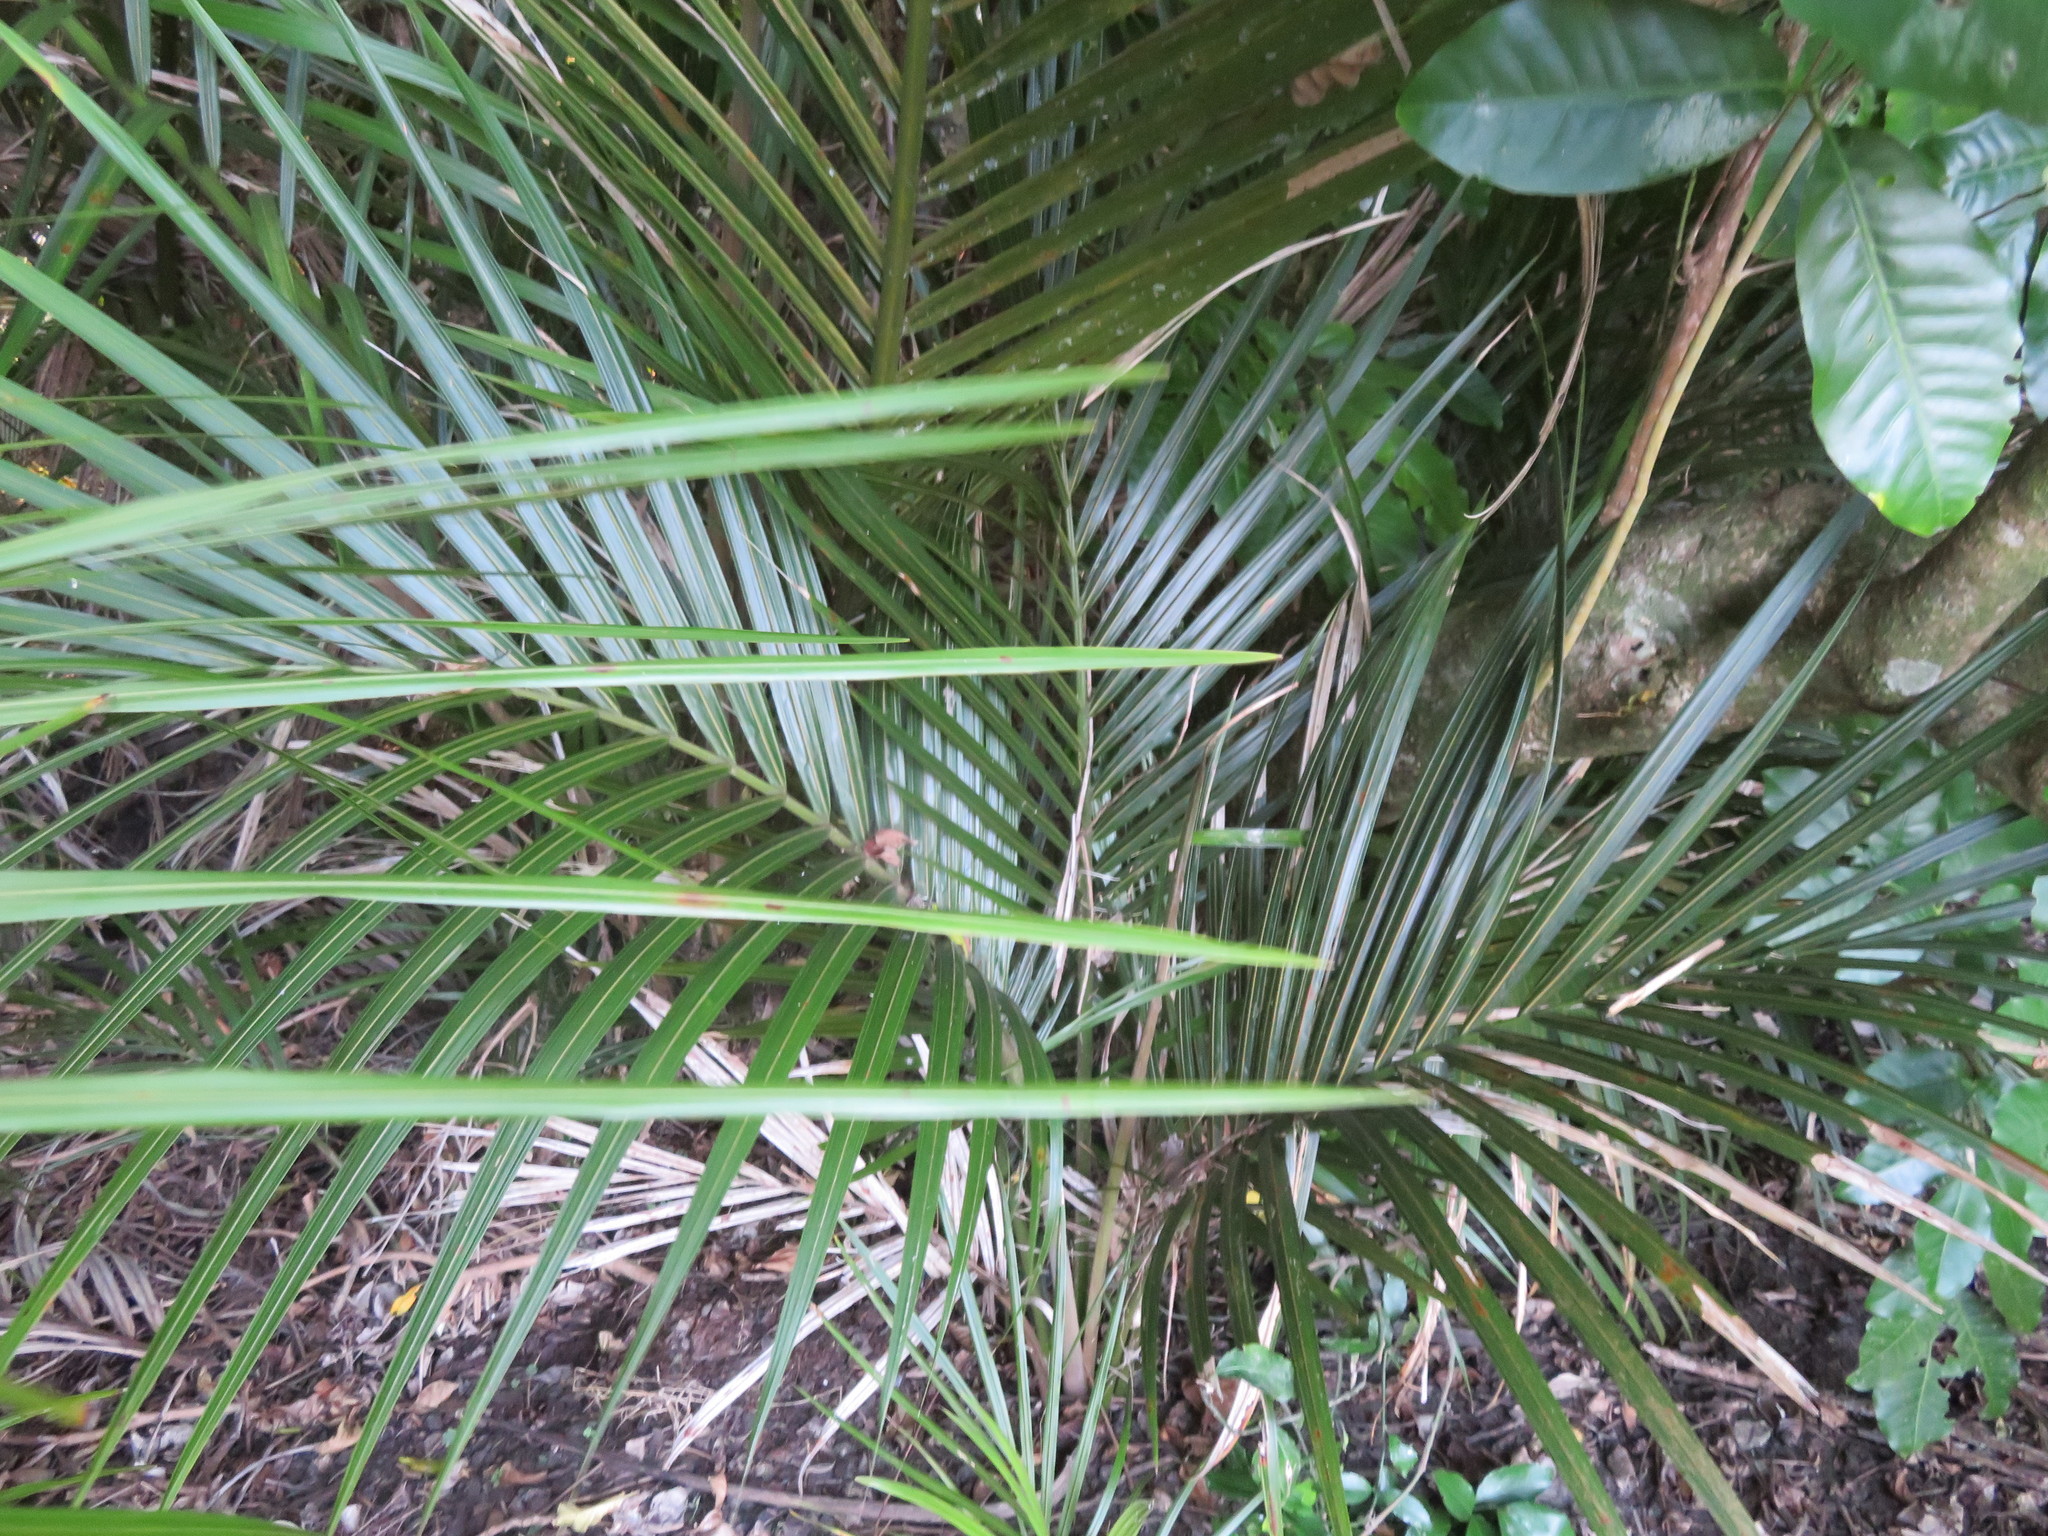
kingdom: Plantae
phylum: Tracheophyta
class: Liliopsida
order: Arecales
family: Arecaceae
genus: Rhopalostylis
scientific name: Rhopalostylis sapida
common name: Feather-duster palm
